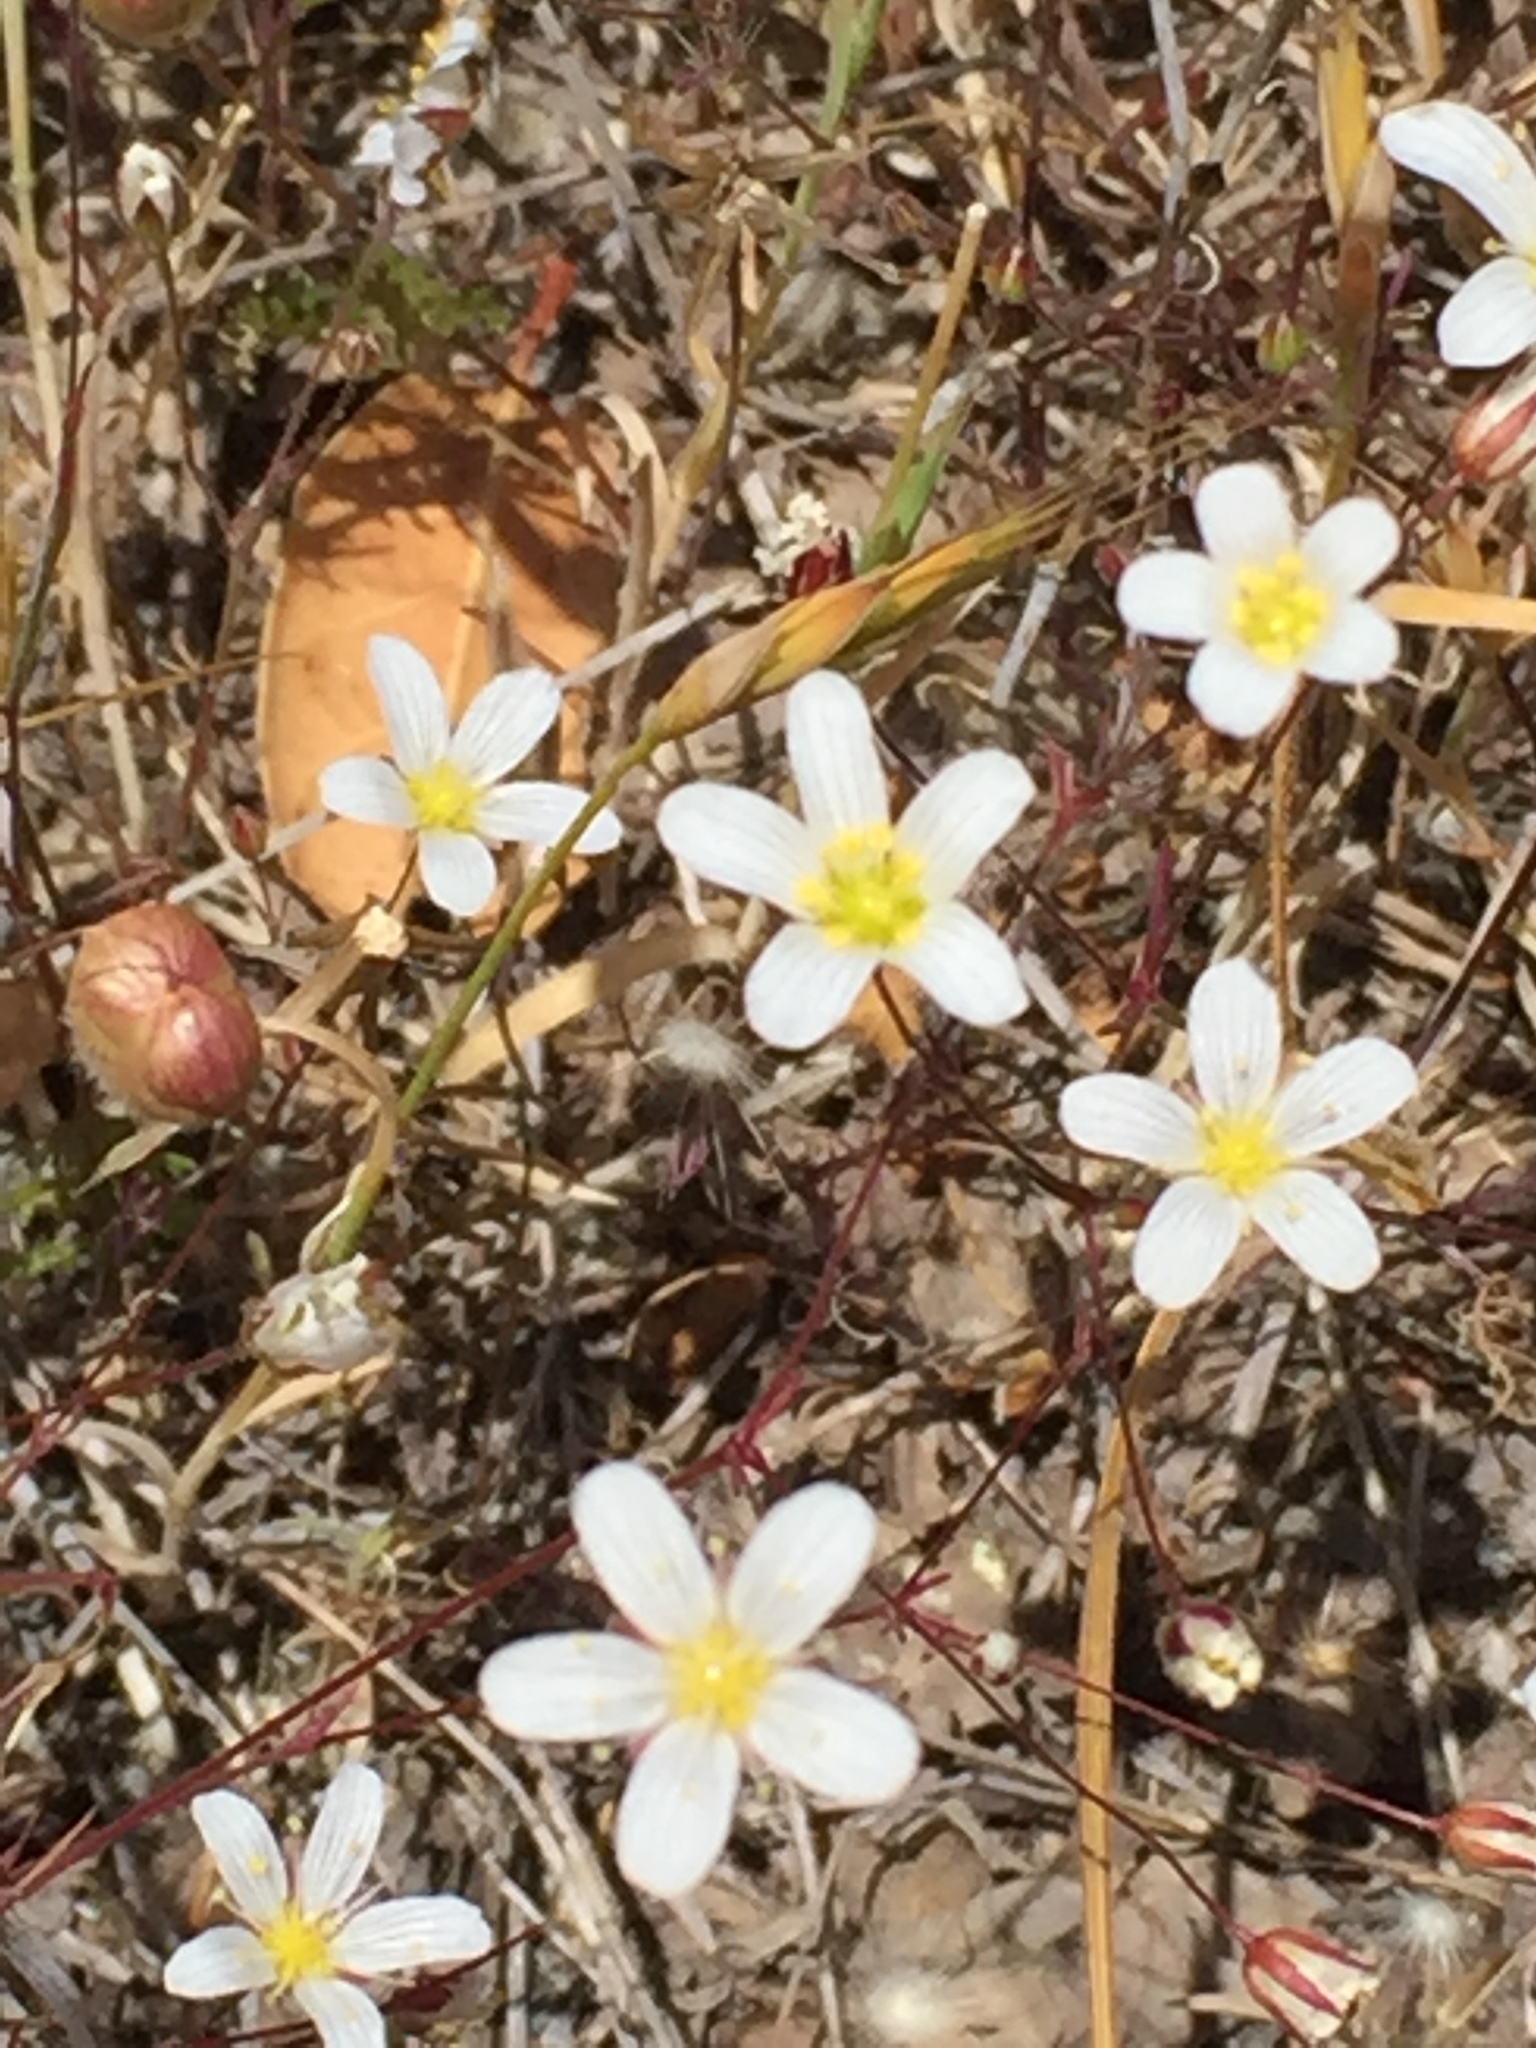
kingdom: Plantae
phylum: Tracheophyta
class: Magnoliopsida
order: Caryophyllales
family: Caryophyllaceae
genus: Sabulina
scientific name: Sabulina douglasii
